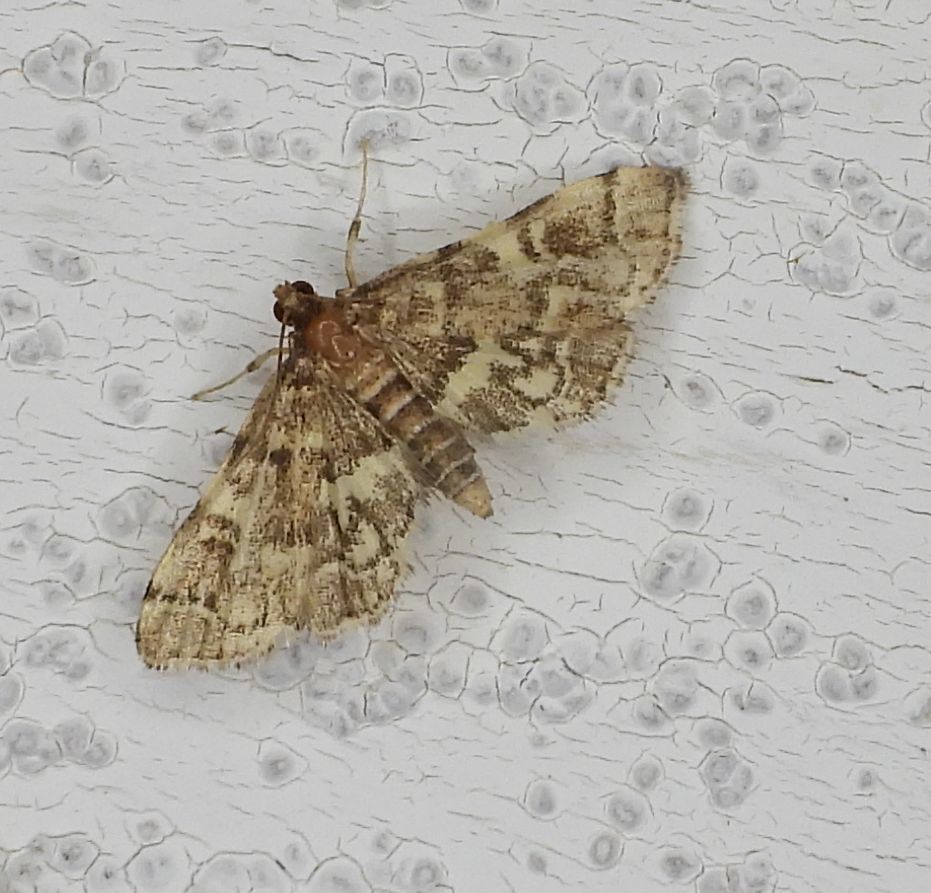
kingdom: Animalia
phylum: Arthropoda
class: Insecta
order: Lepidoptera
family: Crambidae
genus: Anageshna
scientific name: Anageshna primordialis
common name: Yellow-spotted webworm moth
